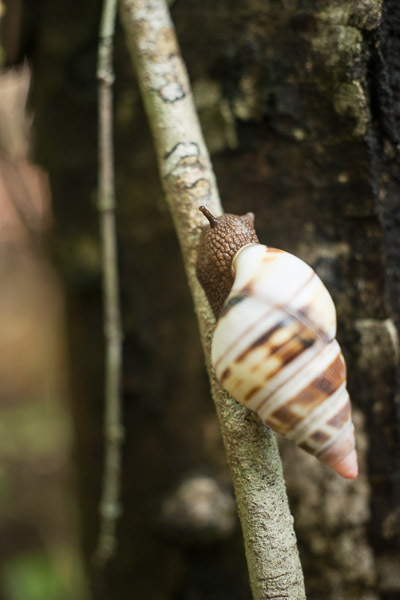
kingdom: Animalia
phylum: Mollusca
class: Gastropoda
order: Stylommatophora
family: Orthalicidae
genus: Liguus
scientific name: Liguus fasciatus
